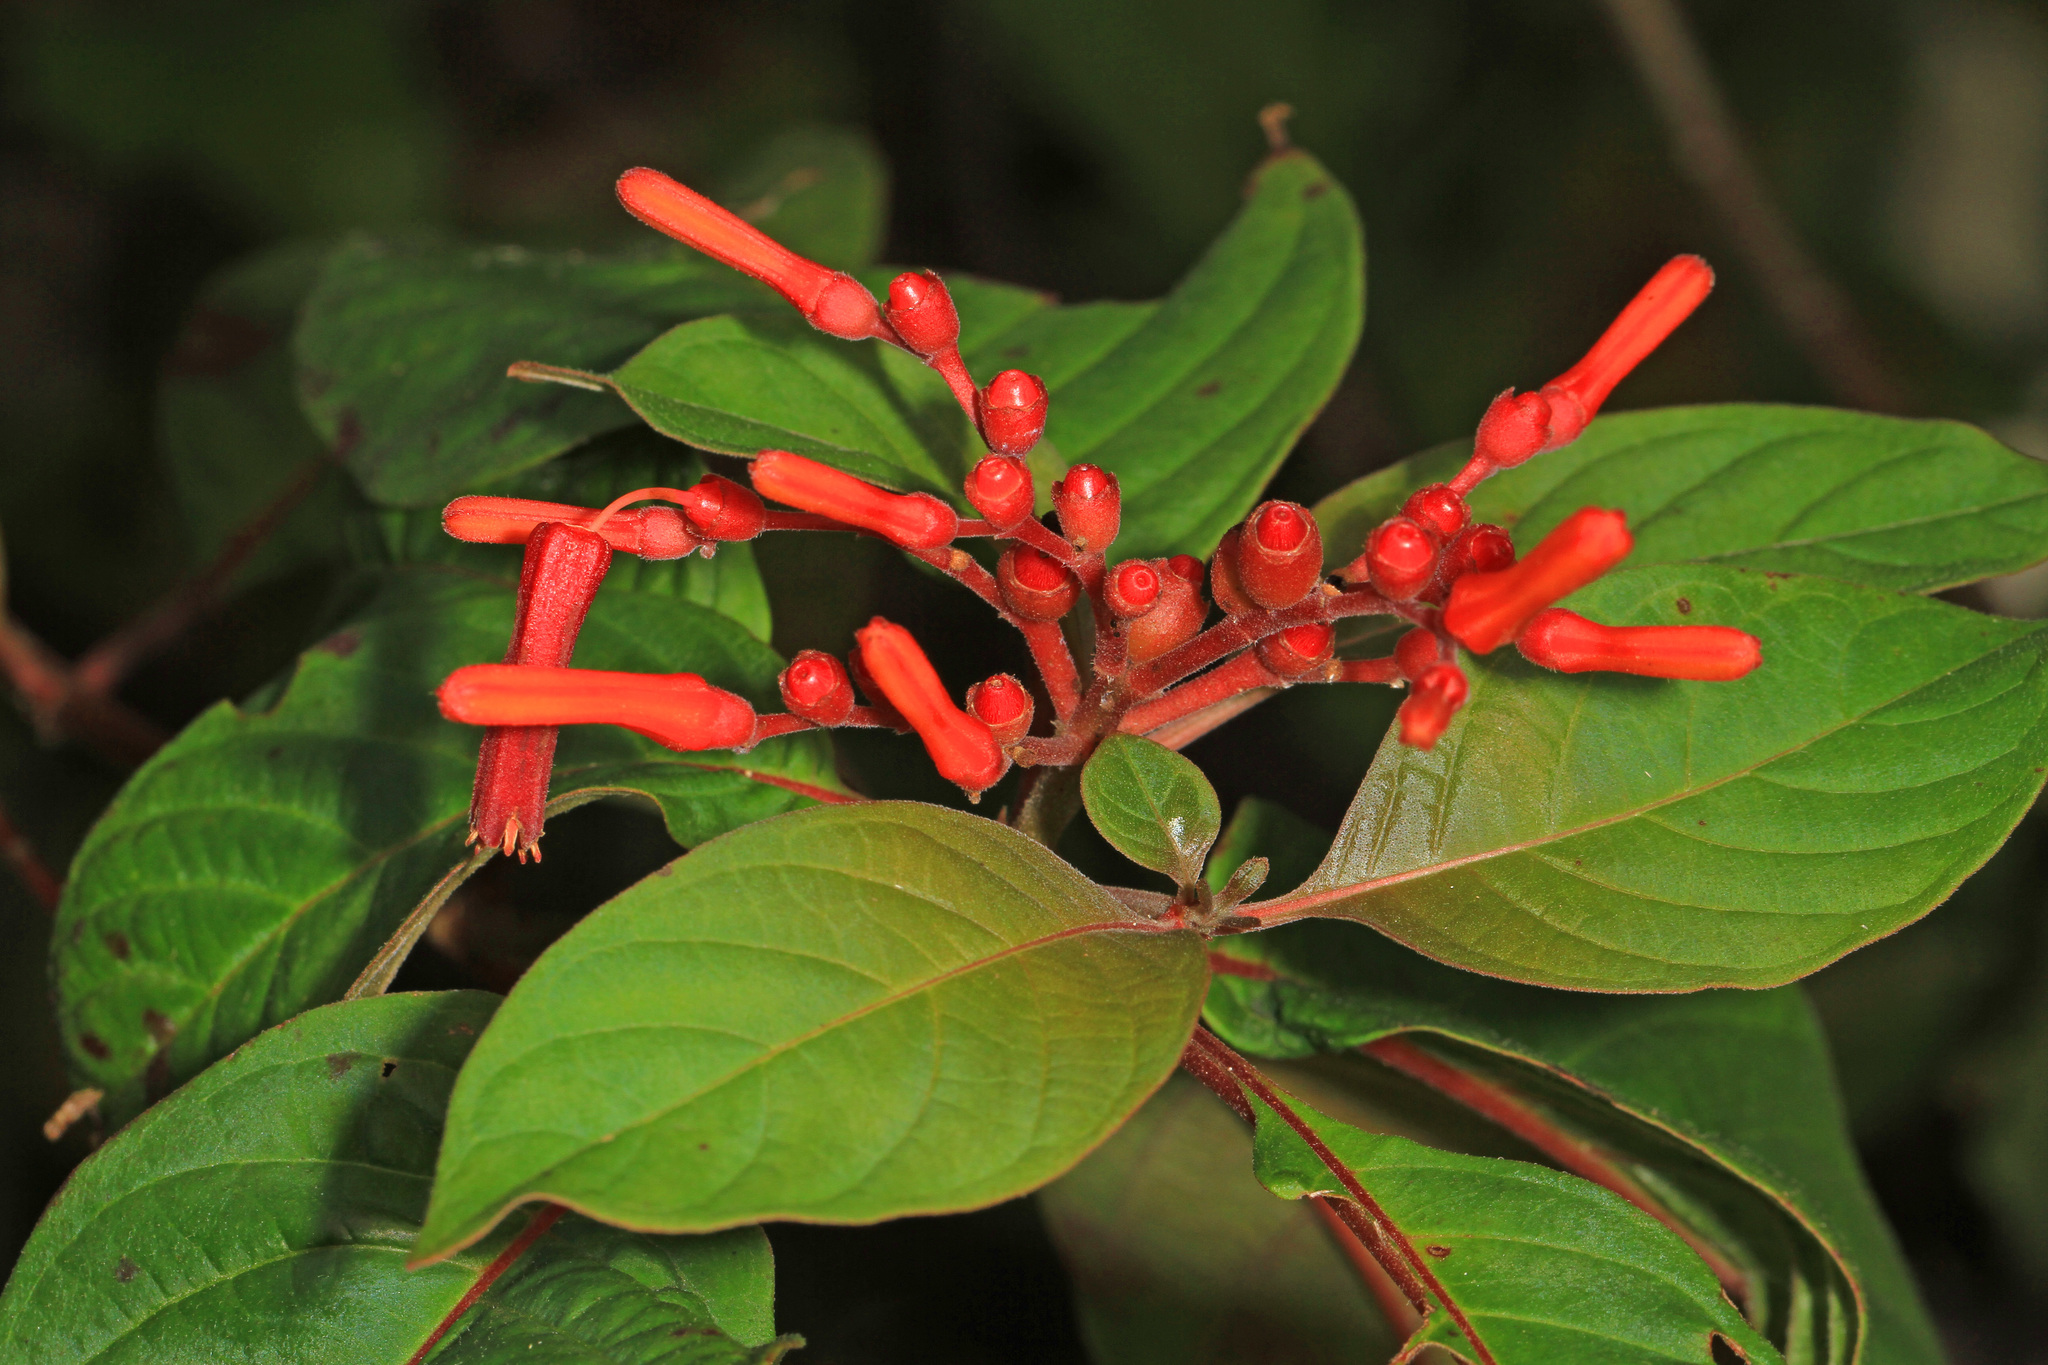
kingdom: Plantae
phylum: Tracheophyta
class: Magnoliopsida
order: Gentianales
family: Rubiaceae
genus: Hamelia
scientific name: Hamelia patens
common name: Redhead
